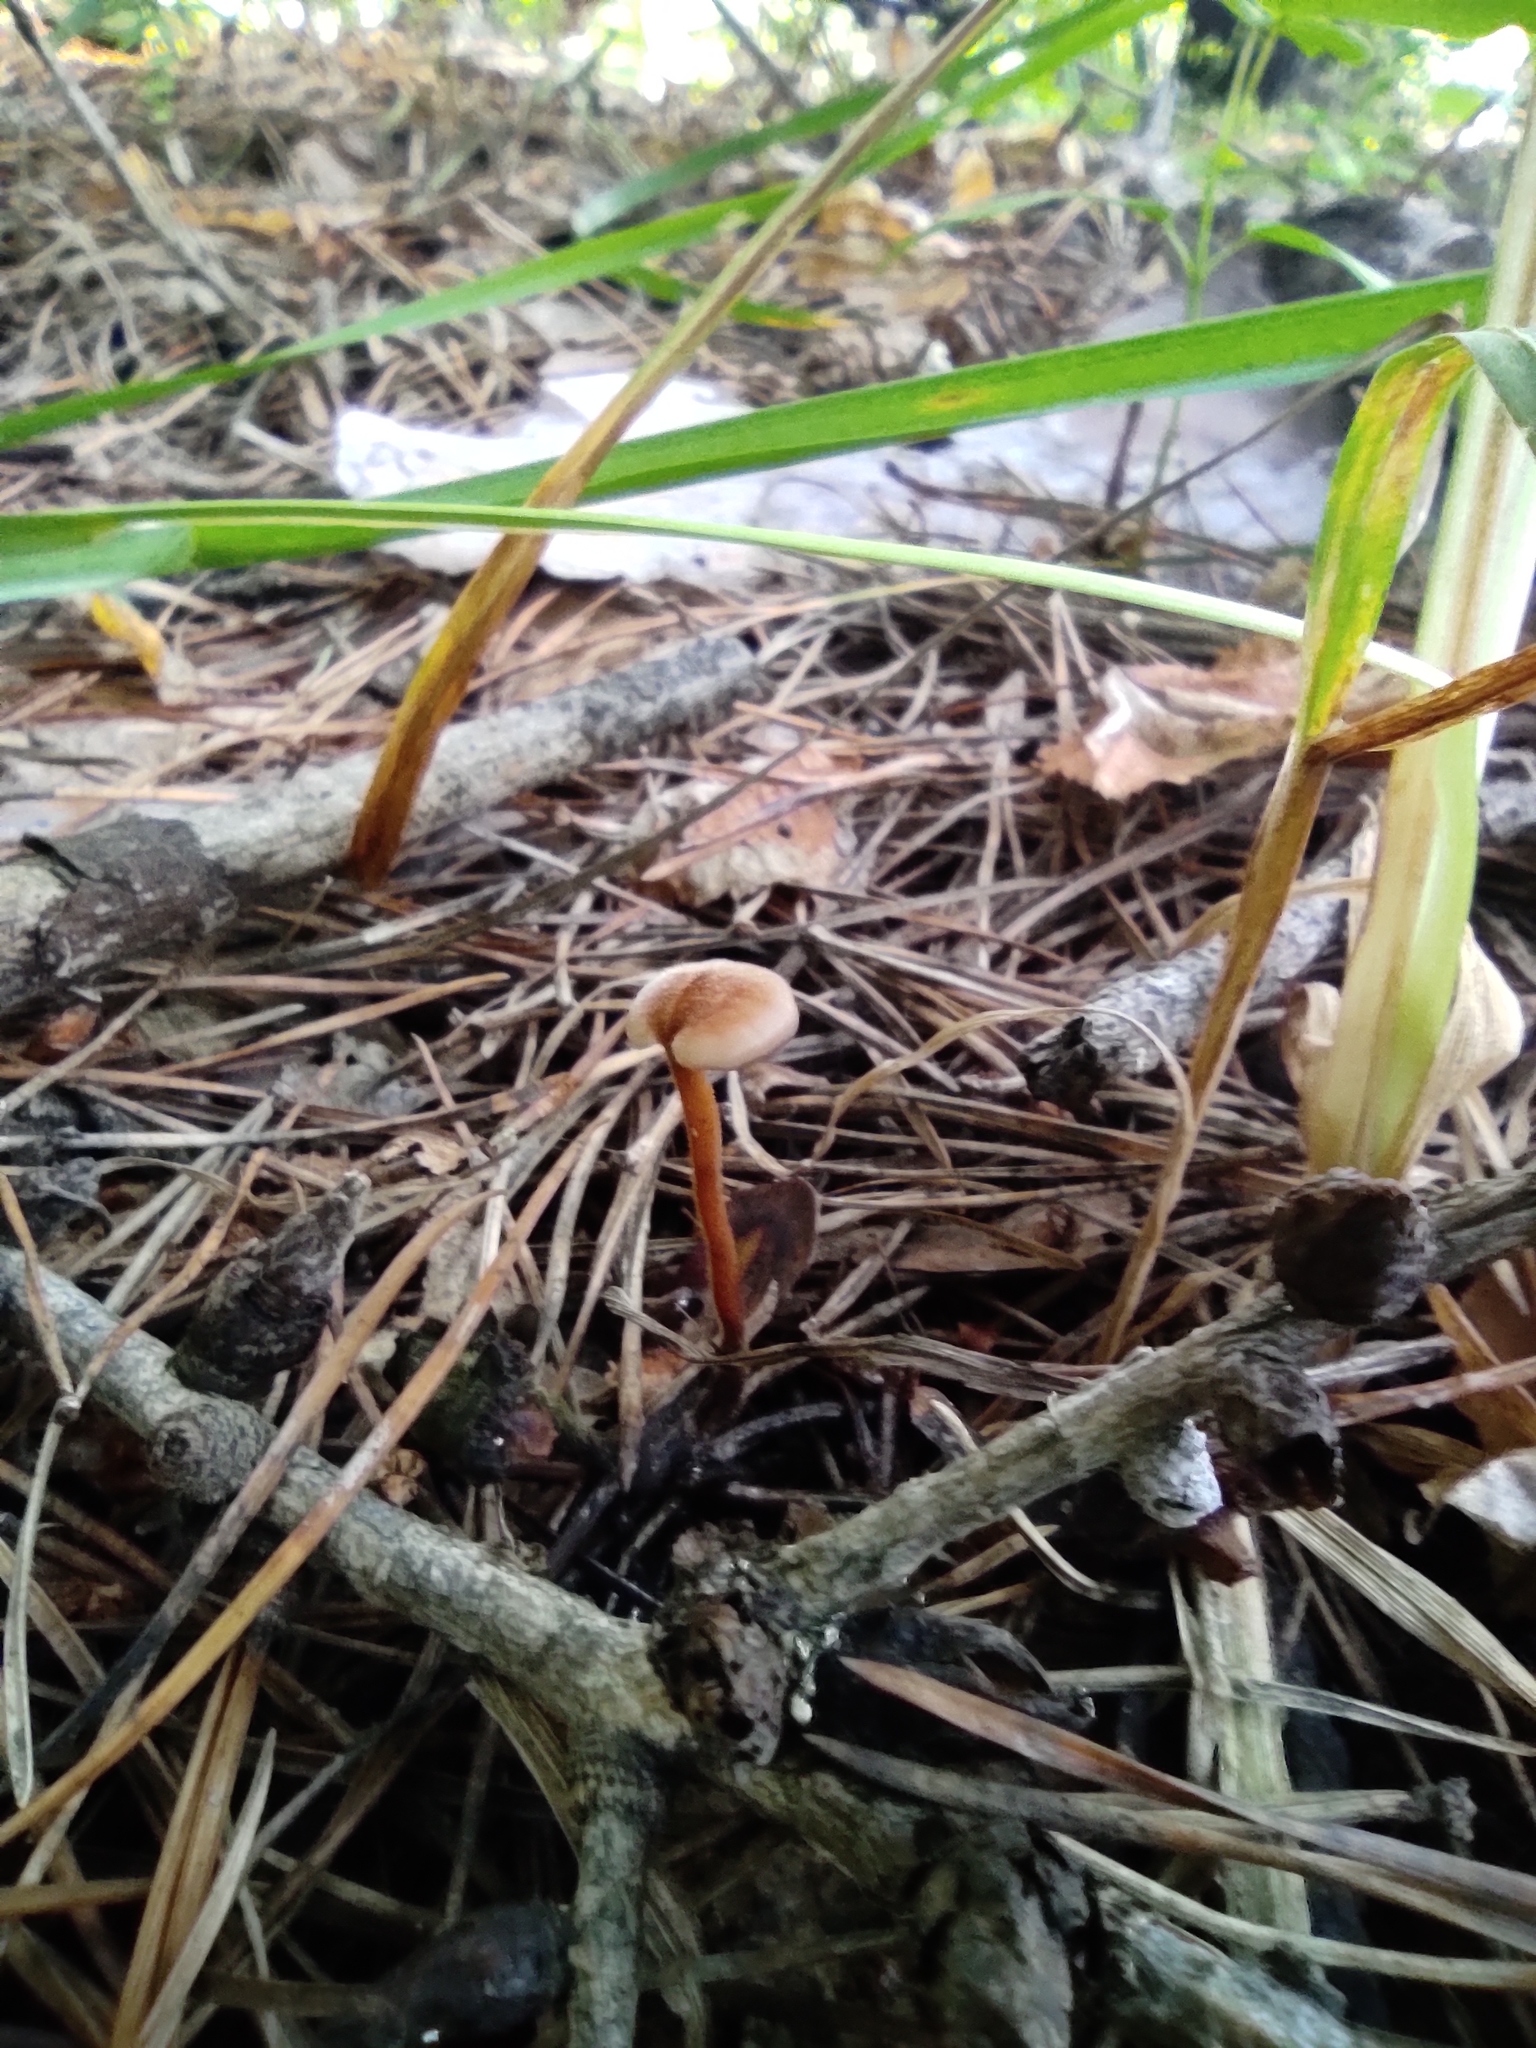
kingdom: Fungi
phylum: Basidiomycota
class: Agaricomycetes
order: Russulales
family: Auriscalpiaceae
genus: Auriscalpium
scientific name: Auriscalpium vulgare
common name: Earpick fungus
